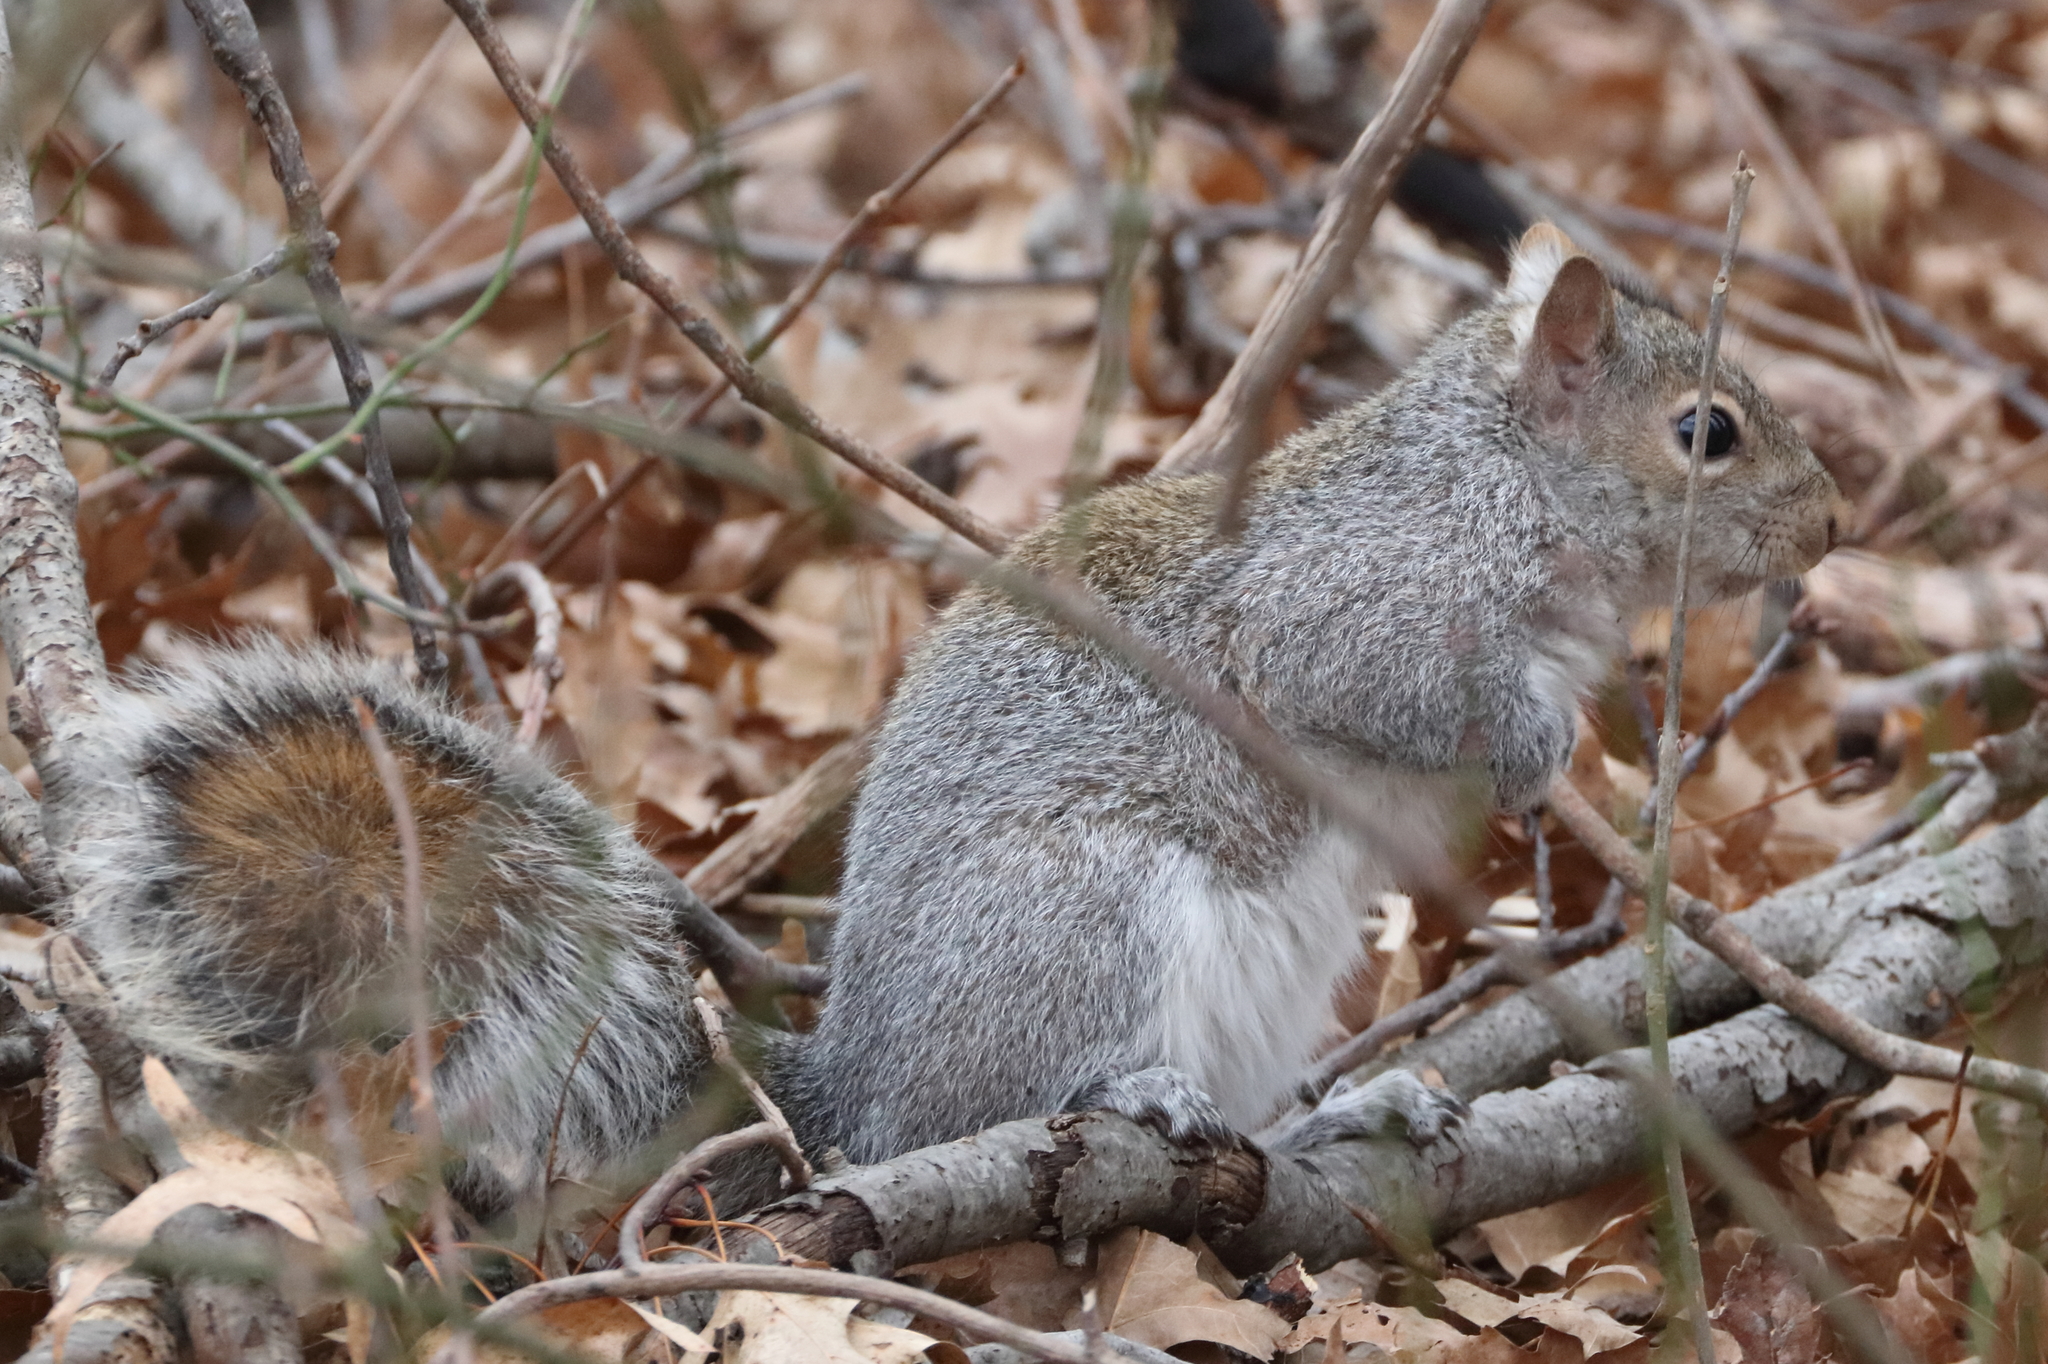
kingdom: Animalia
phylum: Chordata
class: Mammalia
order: Rodentia
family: Sciuridae
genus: Sciurus
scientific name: Sciurus carolinensis
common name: Eastern gray squirrel
